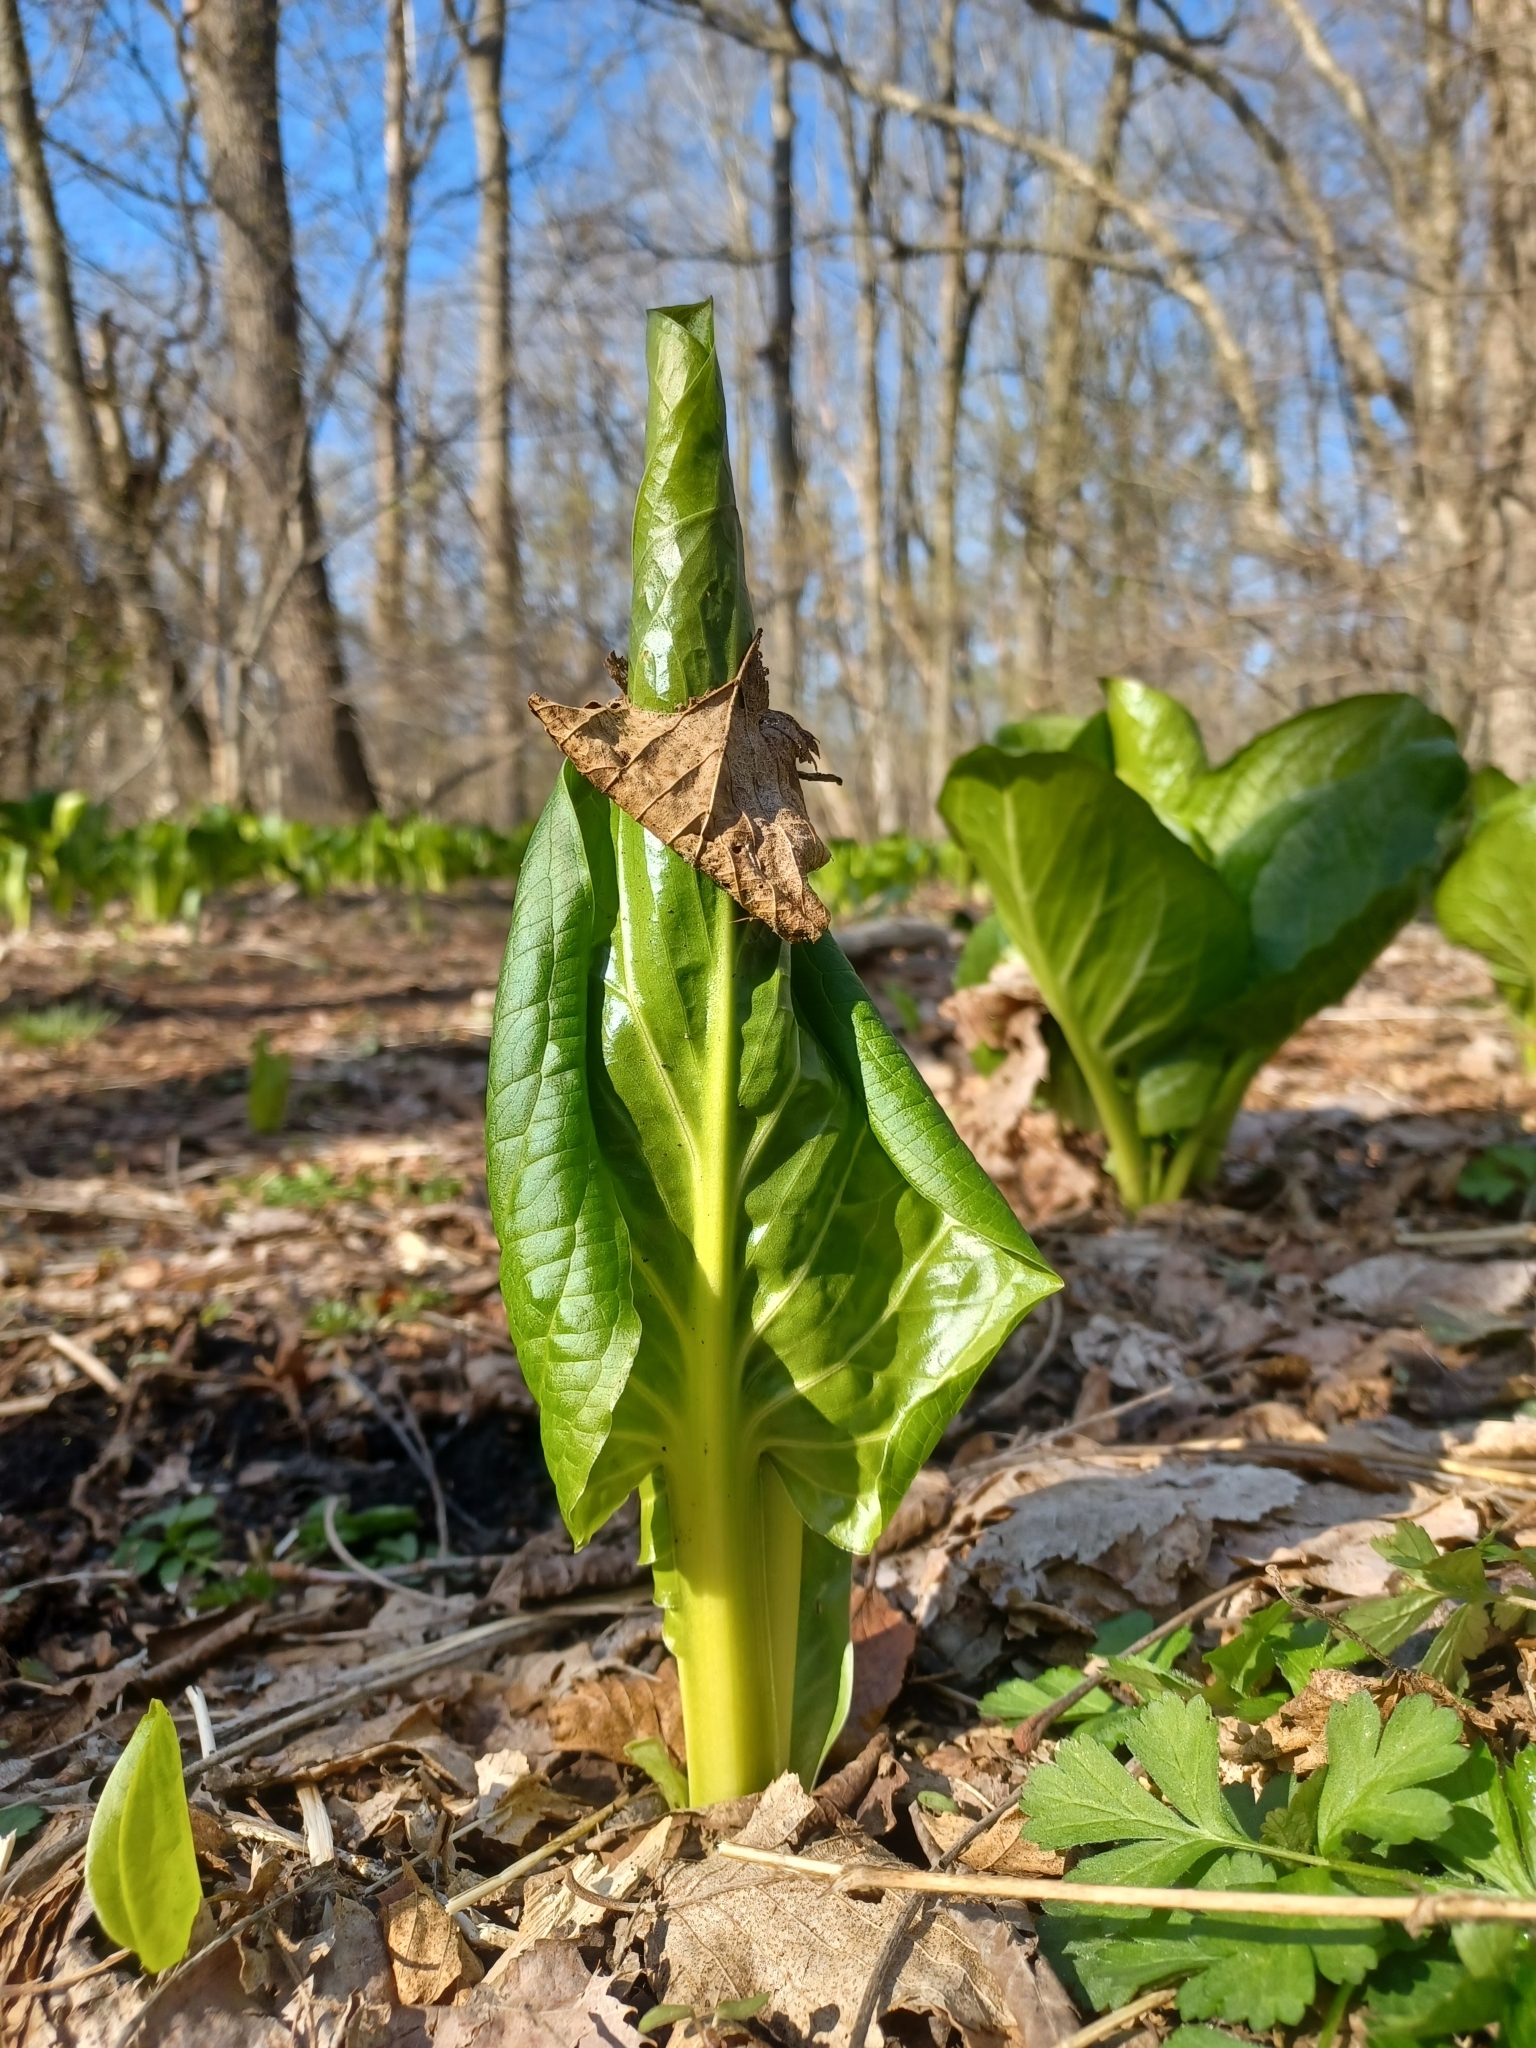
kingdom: Plantae
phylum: Tracheophyta
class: Liliopsida
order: Alismatales
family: Araceae
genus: Symplocarpus
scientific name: Symplocarpus foetidus
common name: Eastern skunk cabbage
